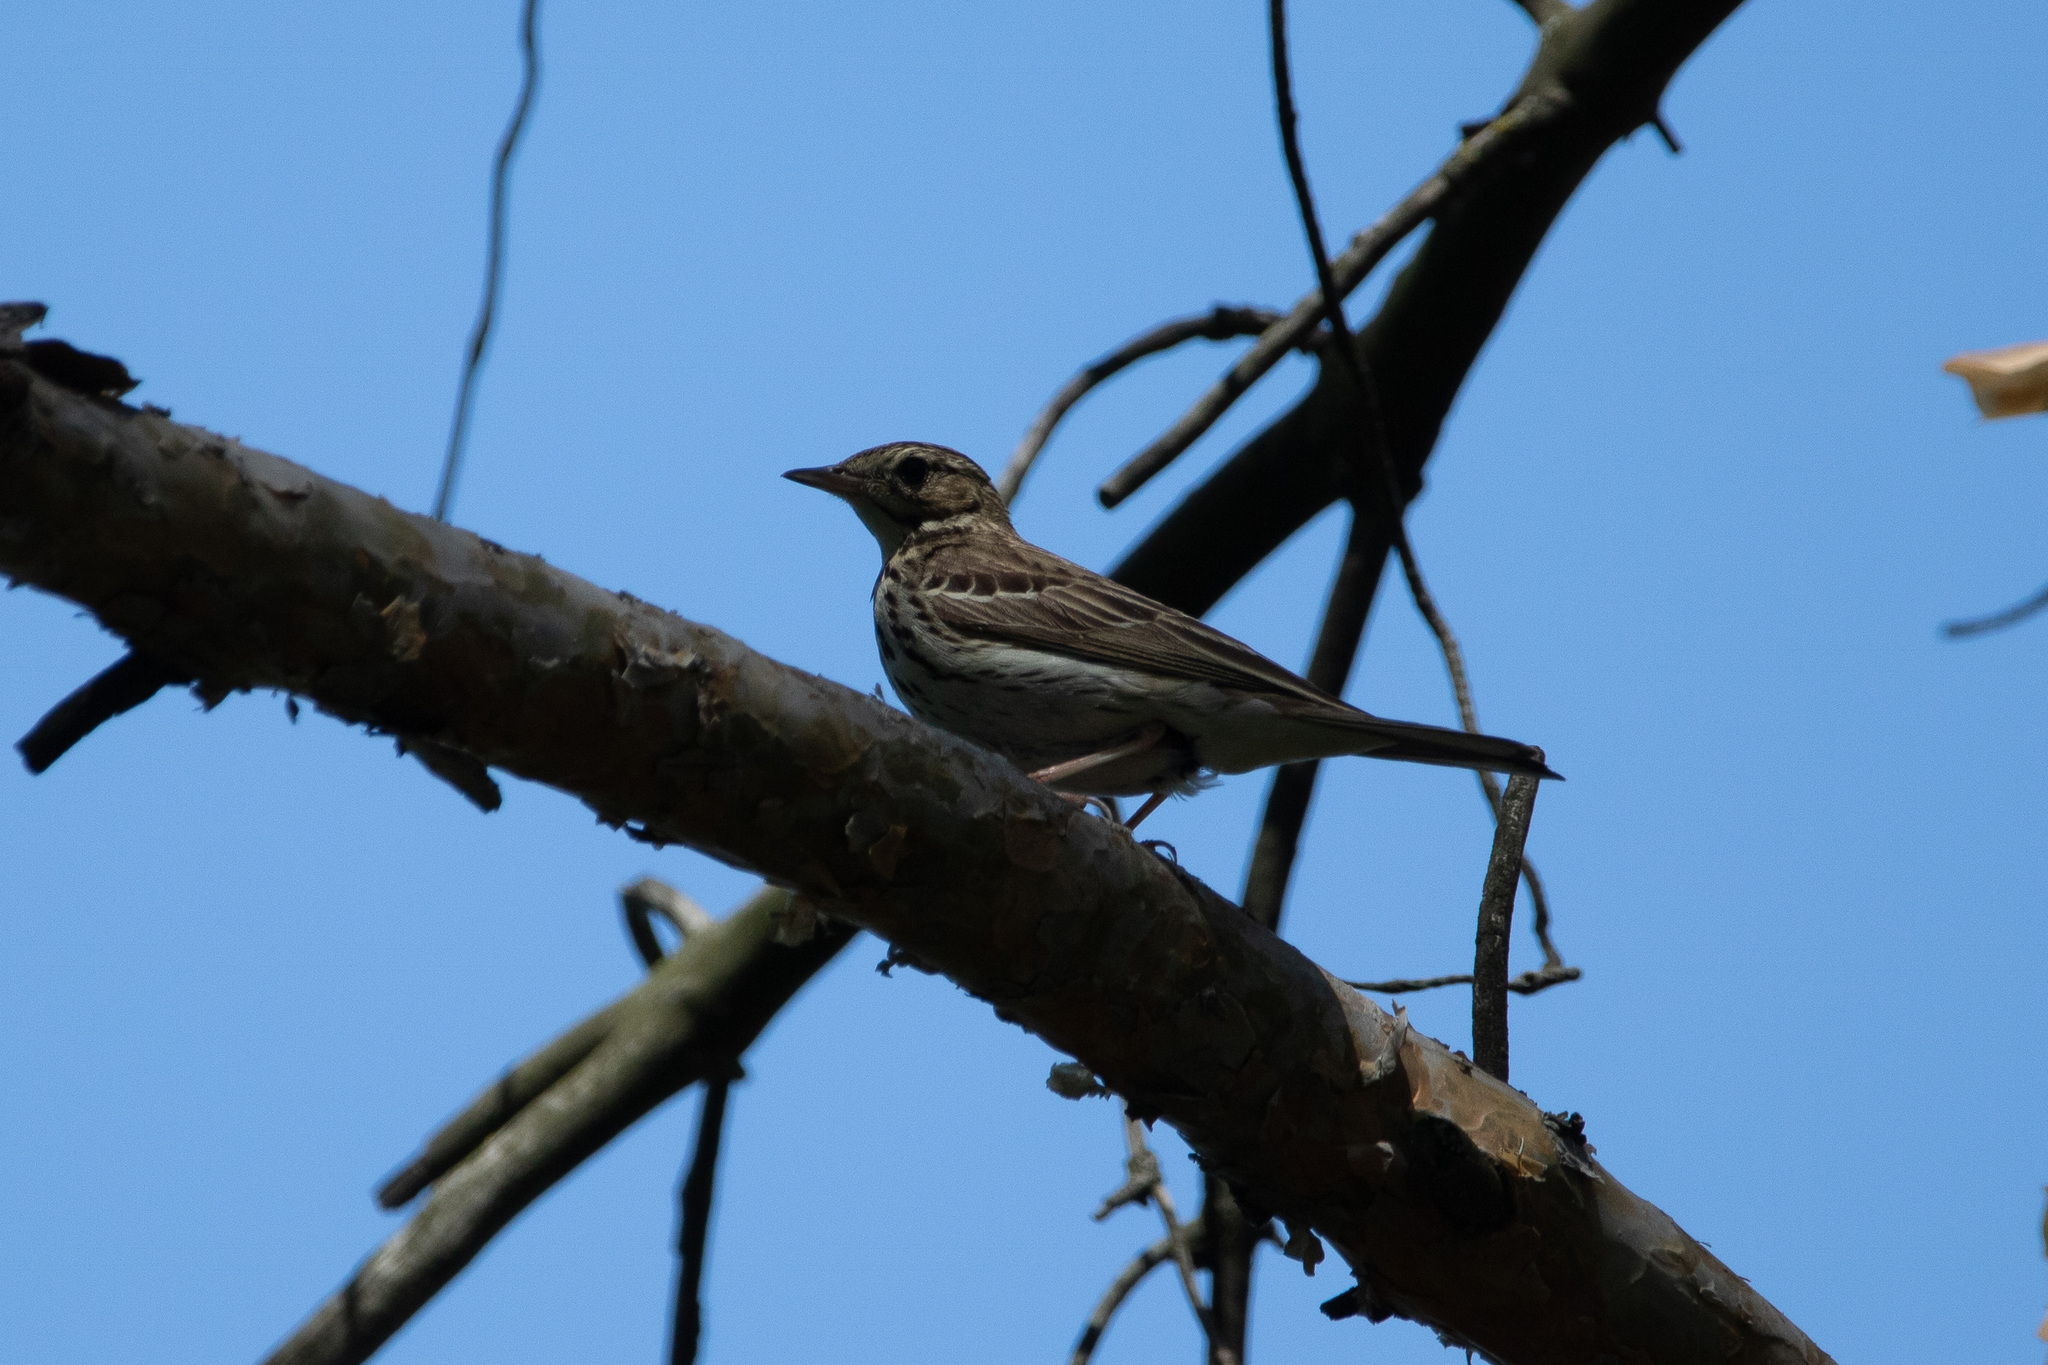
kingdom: Animalia
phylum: Chordata
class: Aves
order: Passeriformes
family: Motacillidae
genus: Anthus
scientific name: Anthus trivialis
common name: Tree pipit
